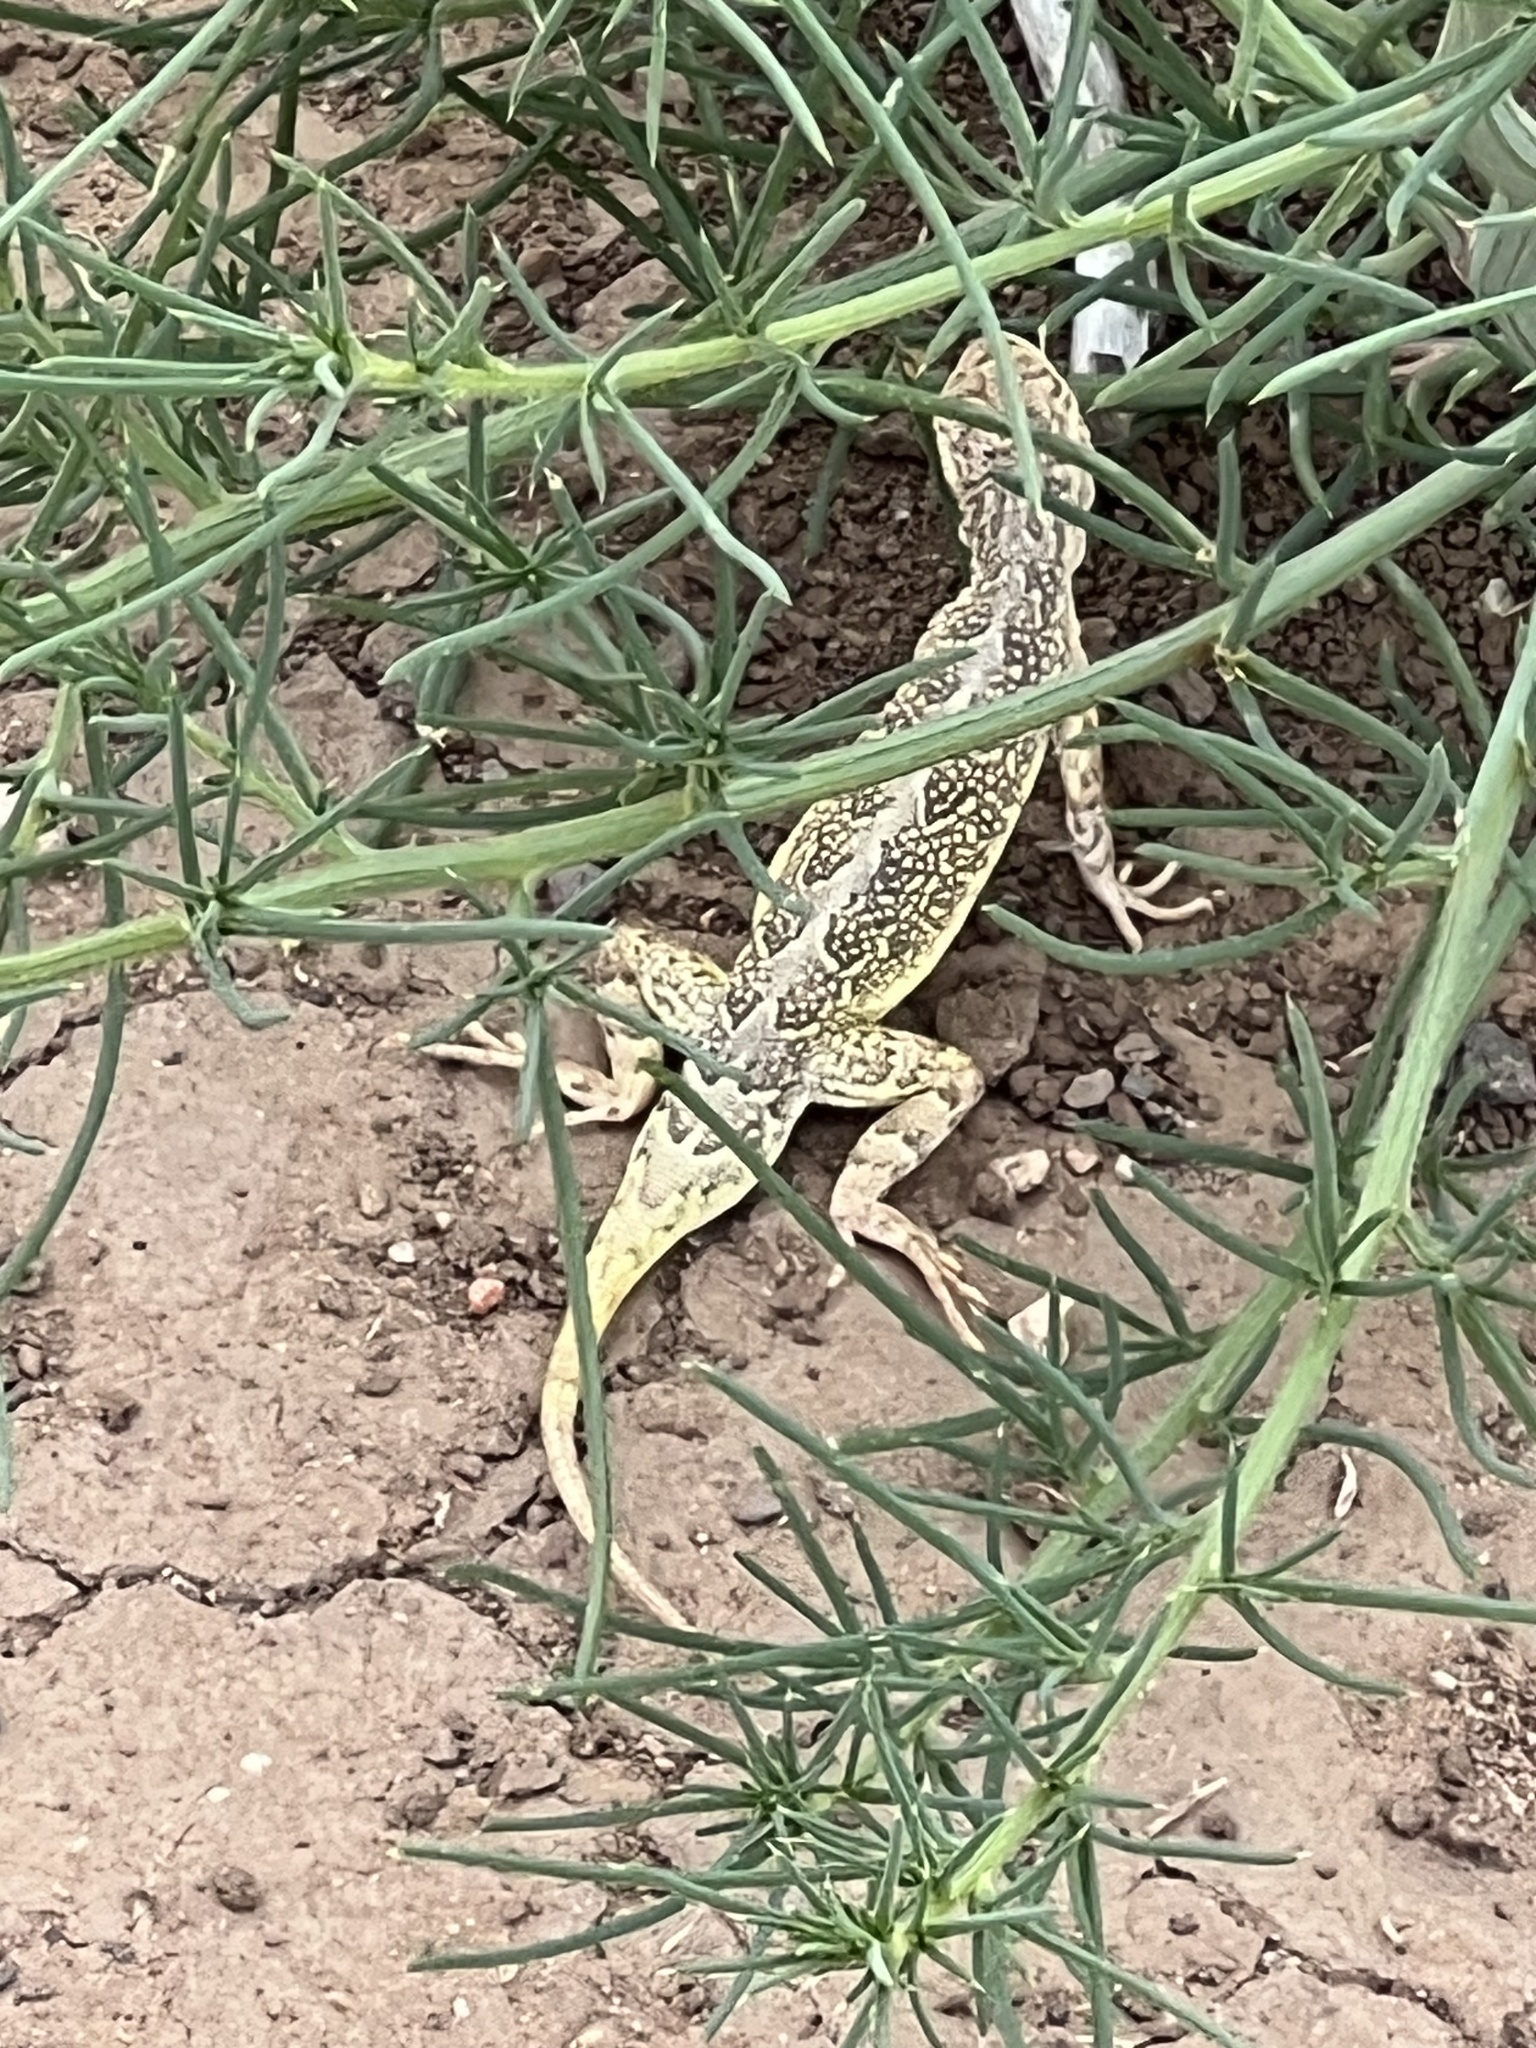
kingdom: Animalia
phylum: Chordata
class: Squamata
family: Phrynosomatidae
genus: Holbrookia
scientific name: Holbrookia maculata
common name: Lesser earless lizard
